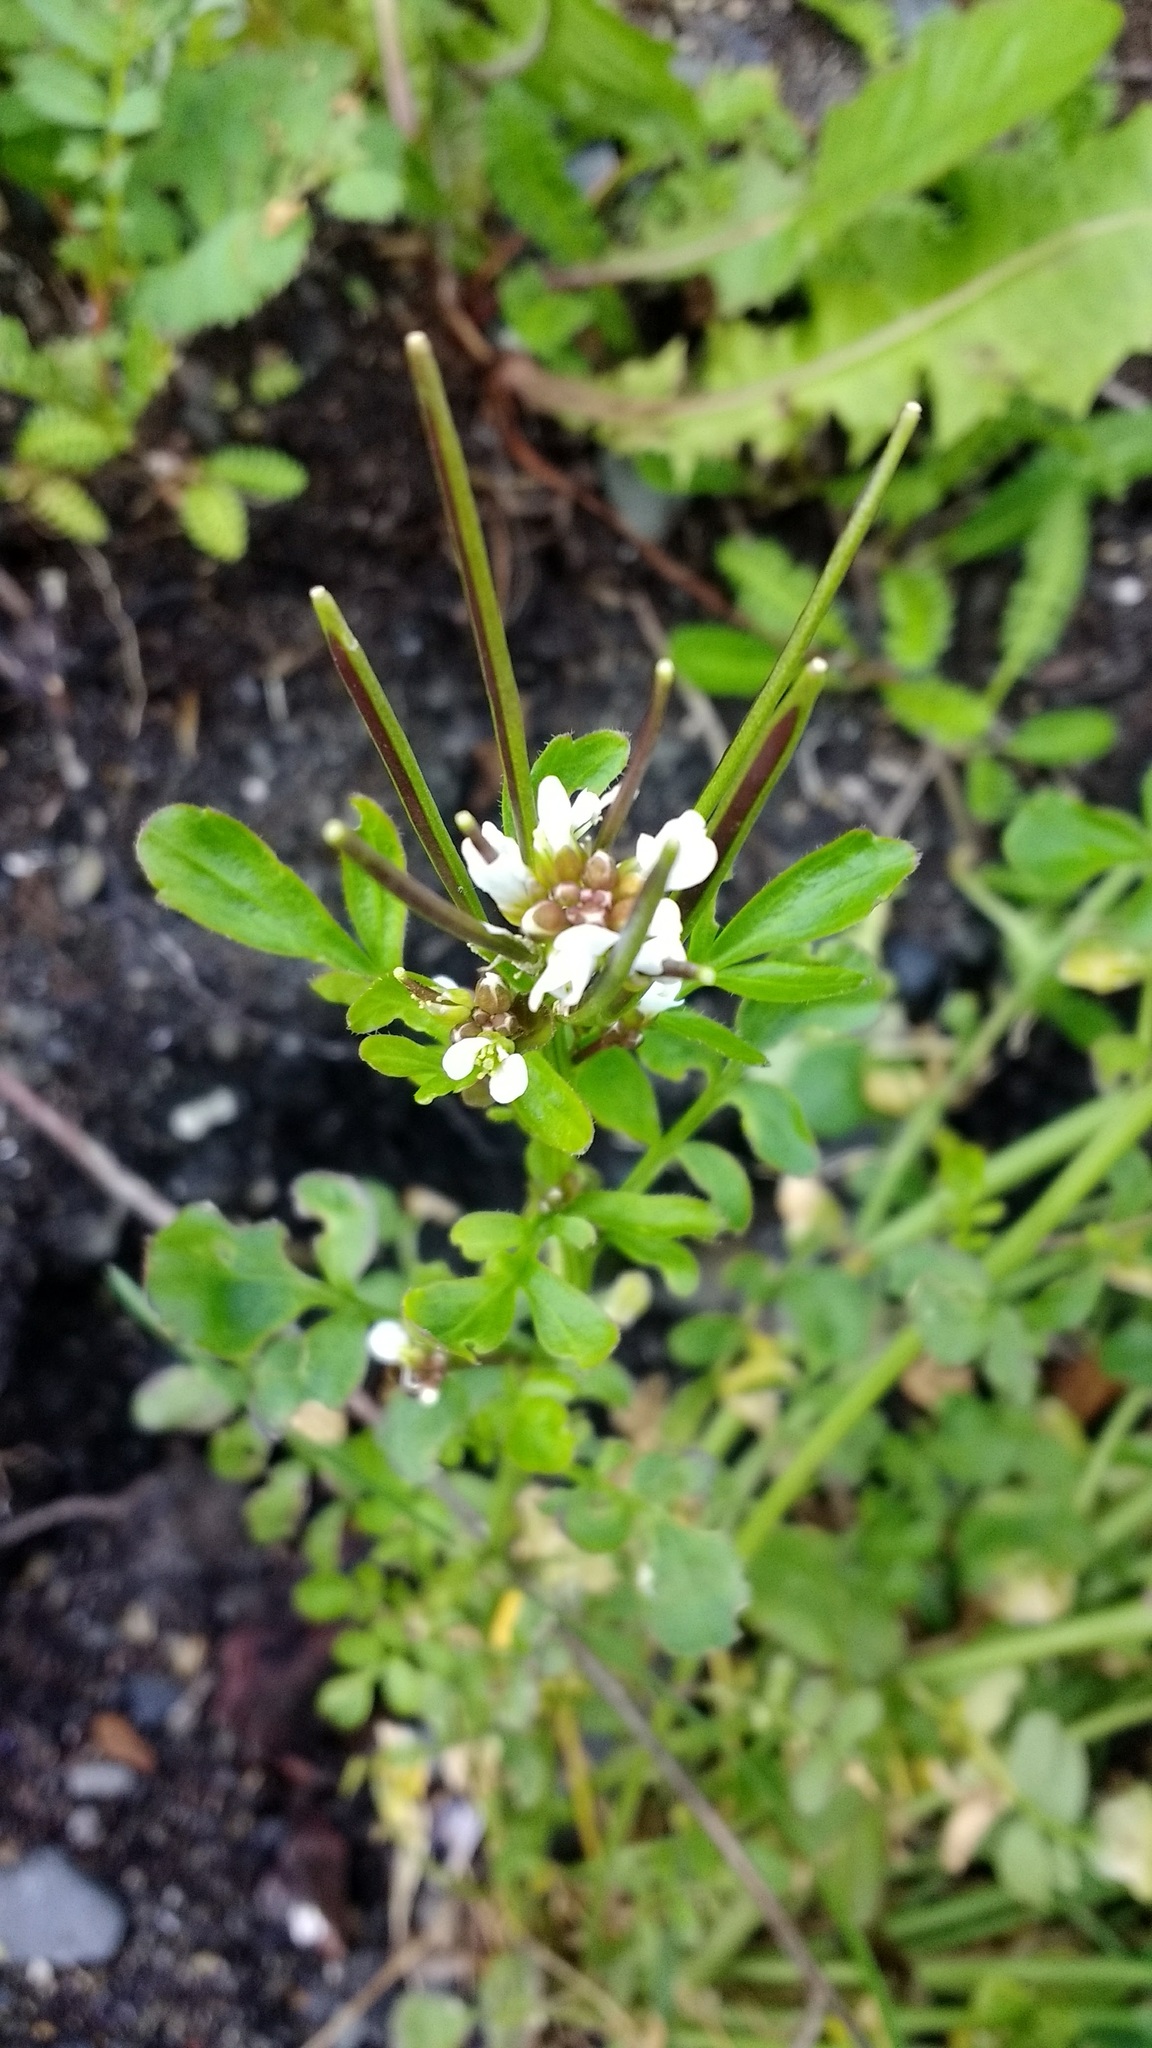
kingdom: Plantae
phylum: Tracheophyta
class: Magnoliopsida
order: Brassicales
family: Brassicaceae
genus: Cardamine
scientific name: Cardamine hirsuta
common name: Hairy bittercress
